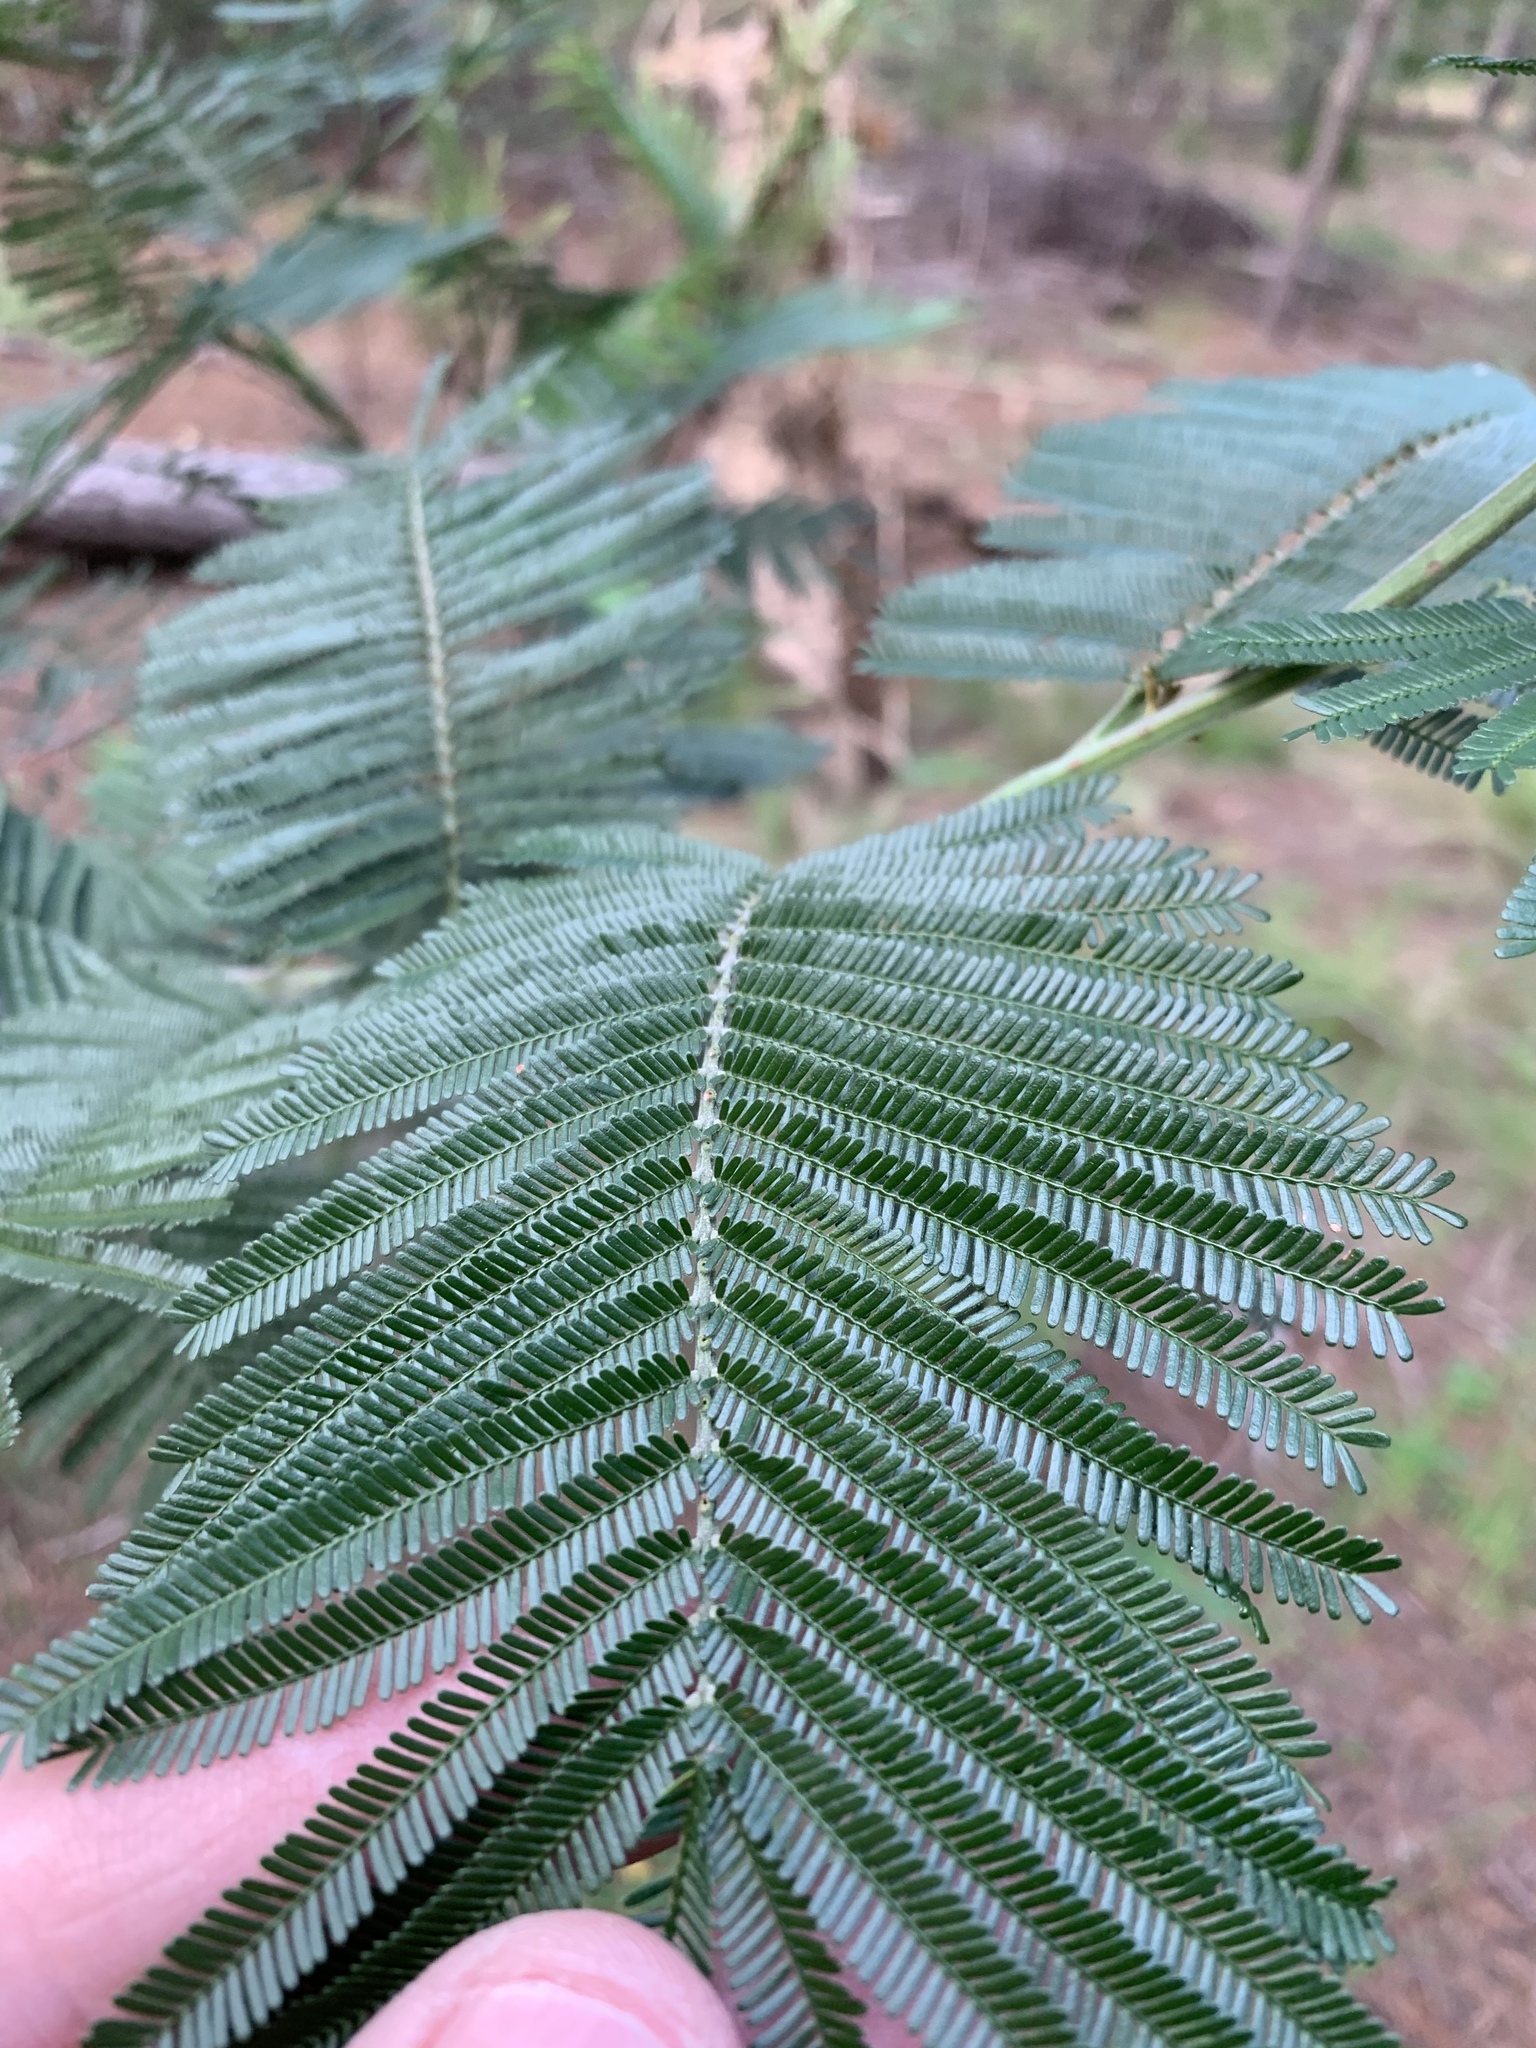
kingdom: Plantae
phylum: Tracheophyta
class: Magnoliopsida
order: Fabales
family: Fabaceae
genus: Acacia
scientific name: Acacia mearnsii
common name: Black wattle
